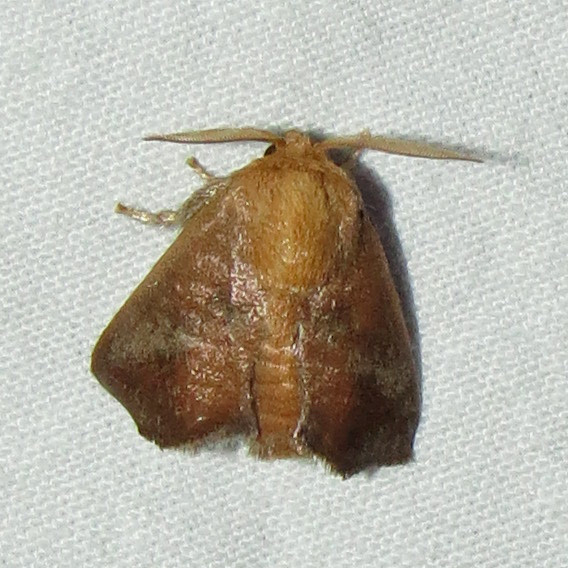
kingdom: Animalia
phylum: Arthropoda
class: Insecta
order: Lepidoptera
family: Limacodidae
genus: Isa
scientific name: Isa textula
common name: Crowned slug moth
